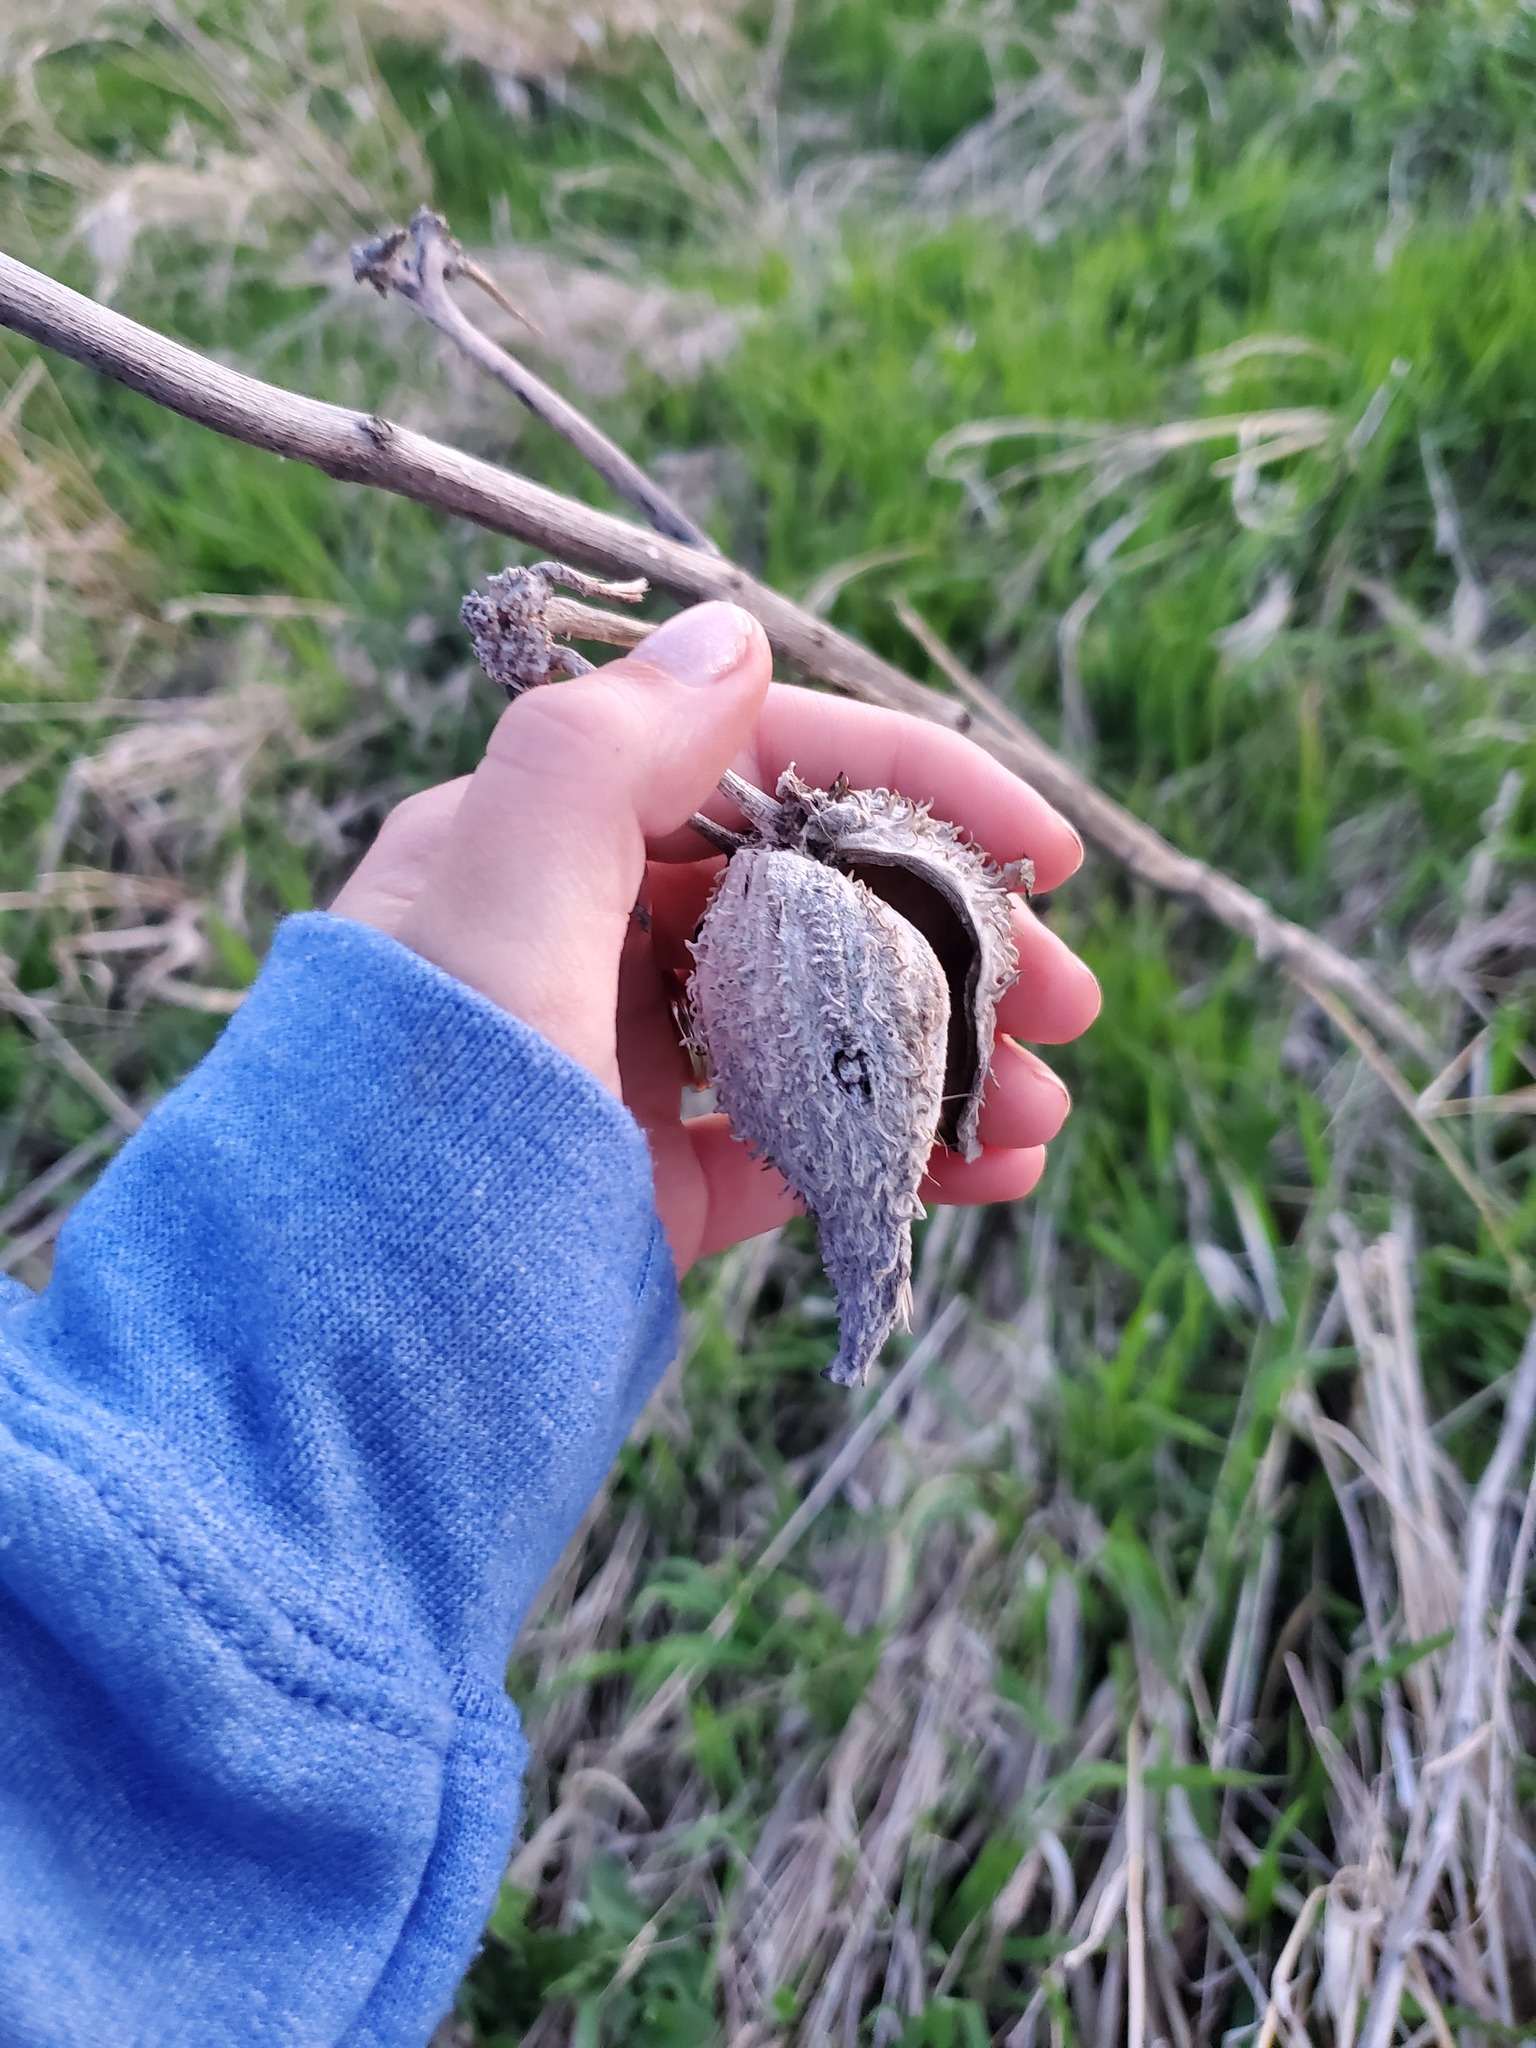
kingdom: Plantae
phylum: Tracheophyta
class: Magnoliopsida
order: Gentianales
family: Apocynaceae
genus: Asclepias
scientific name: Asclepias syriaca
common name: Common milkweed
